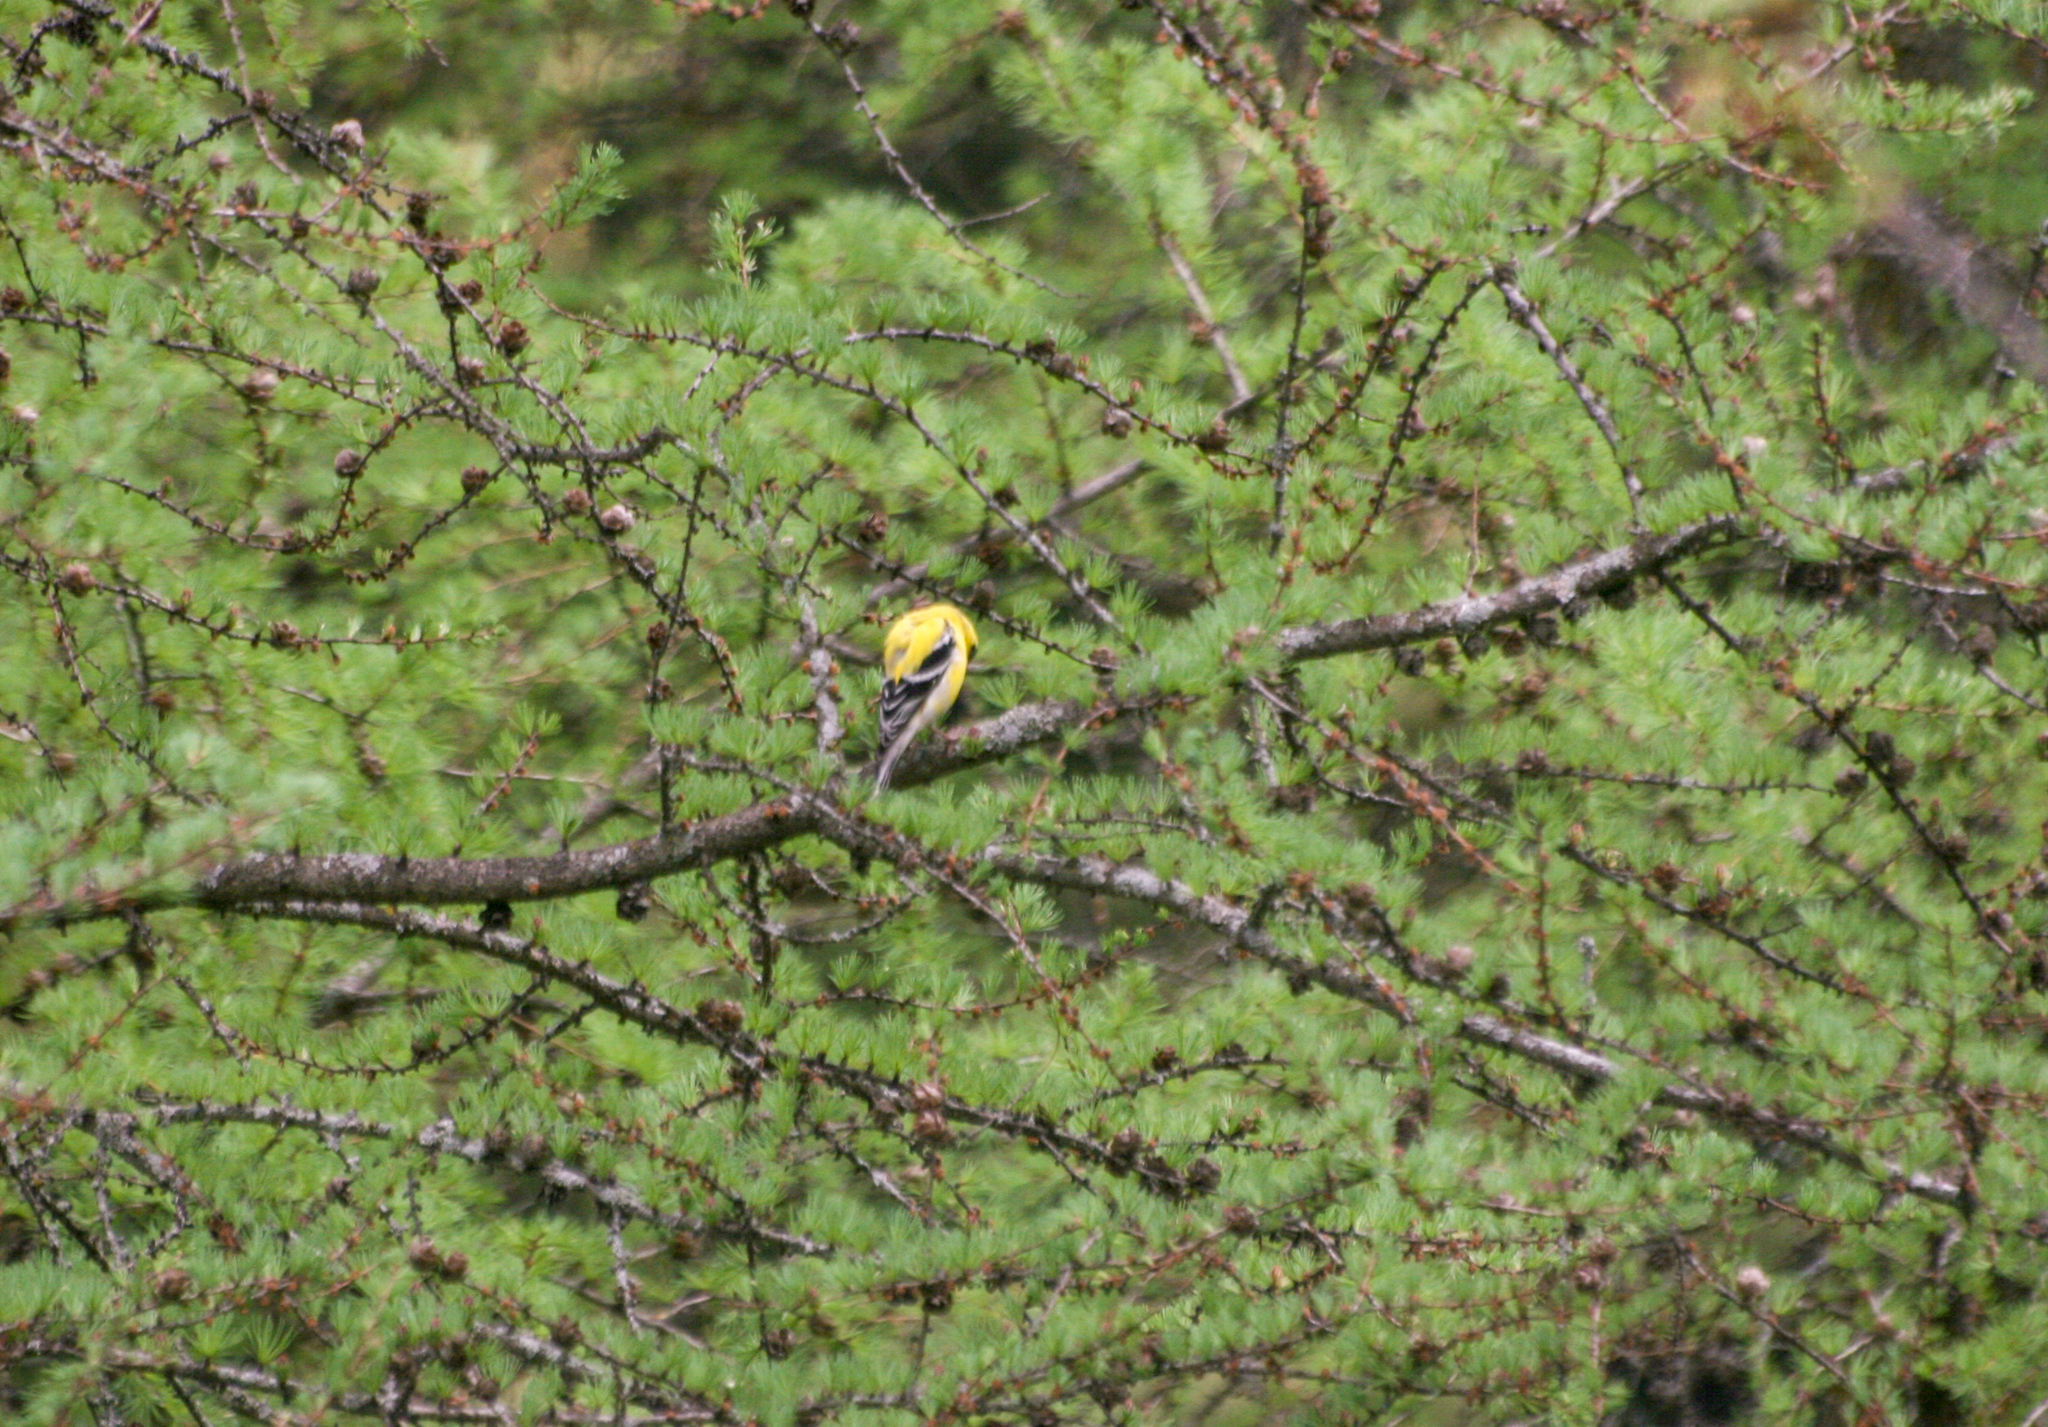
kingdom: Animalia
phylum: Chordata
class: Aves
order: Passeriformes
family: Fringillidae
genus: Spinus
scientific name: Spinus tristis
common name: American goldfinch
